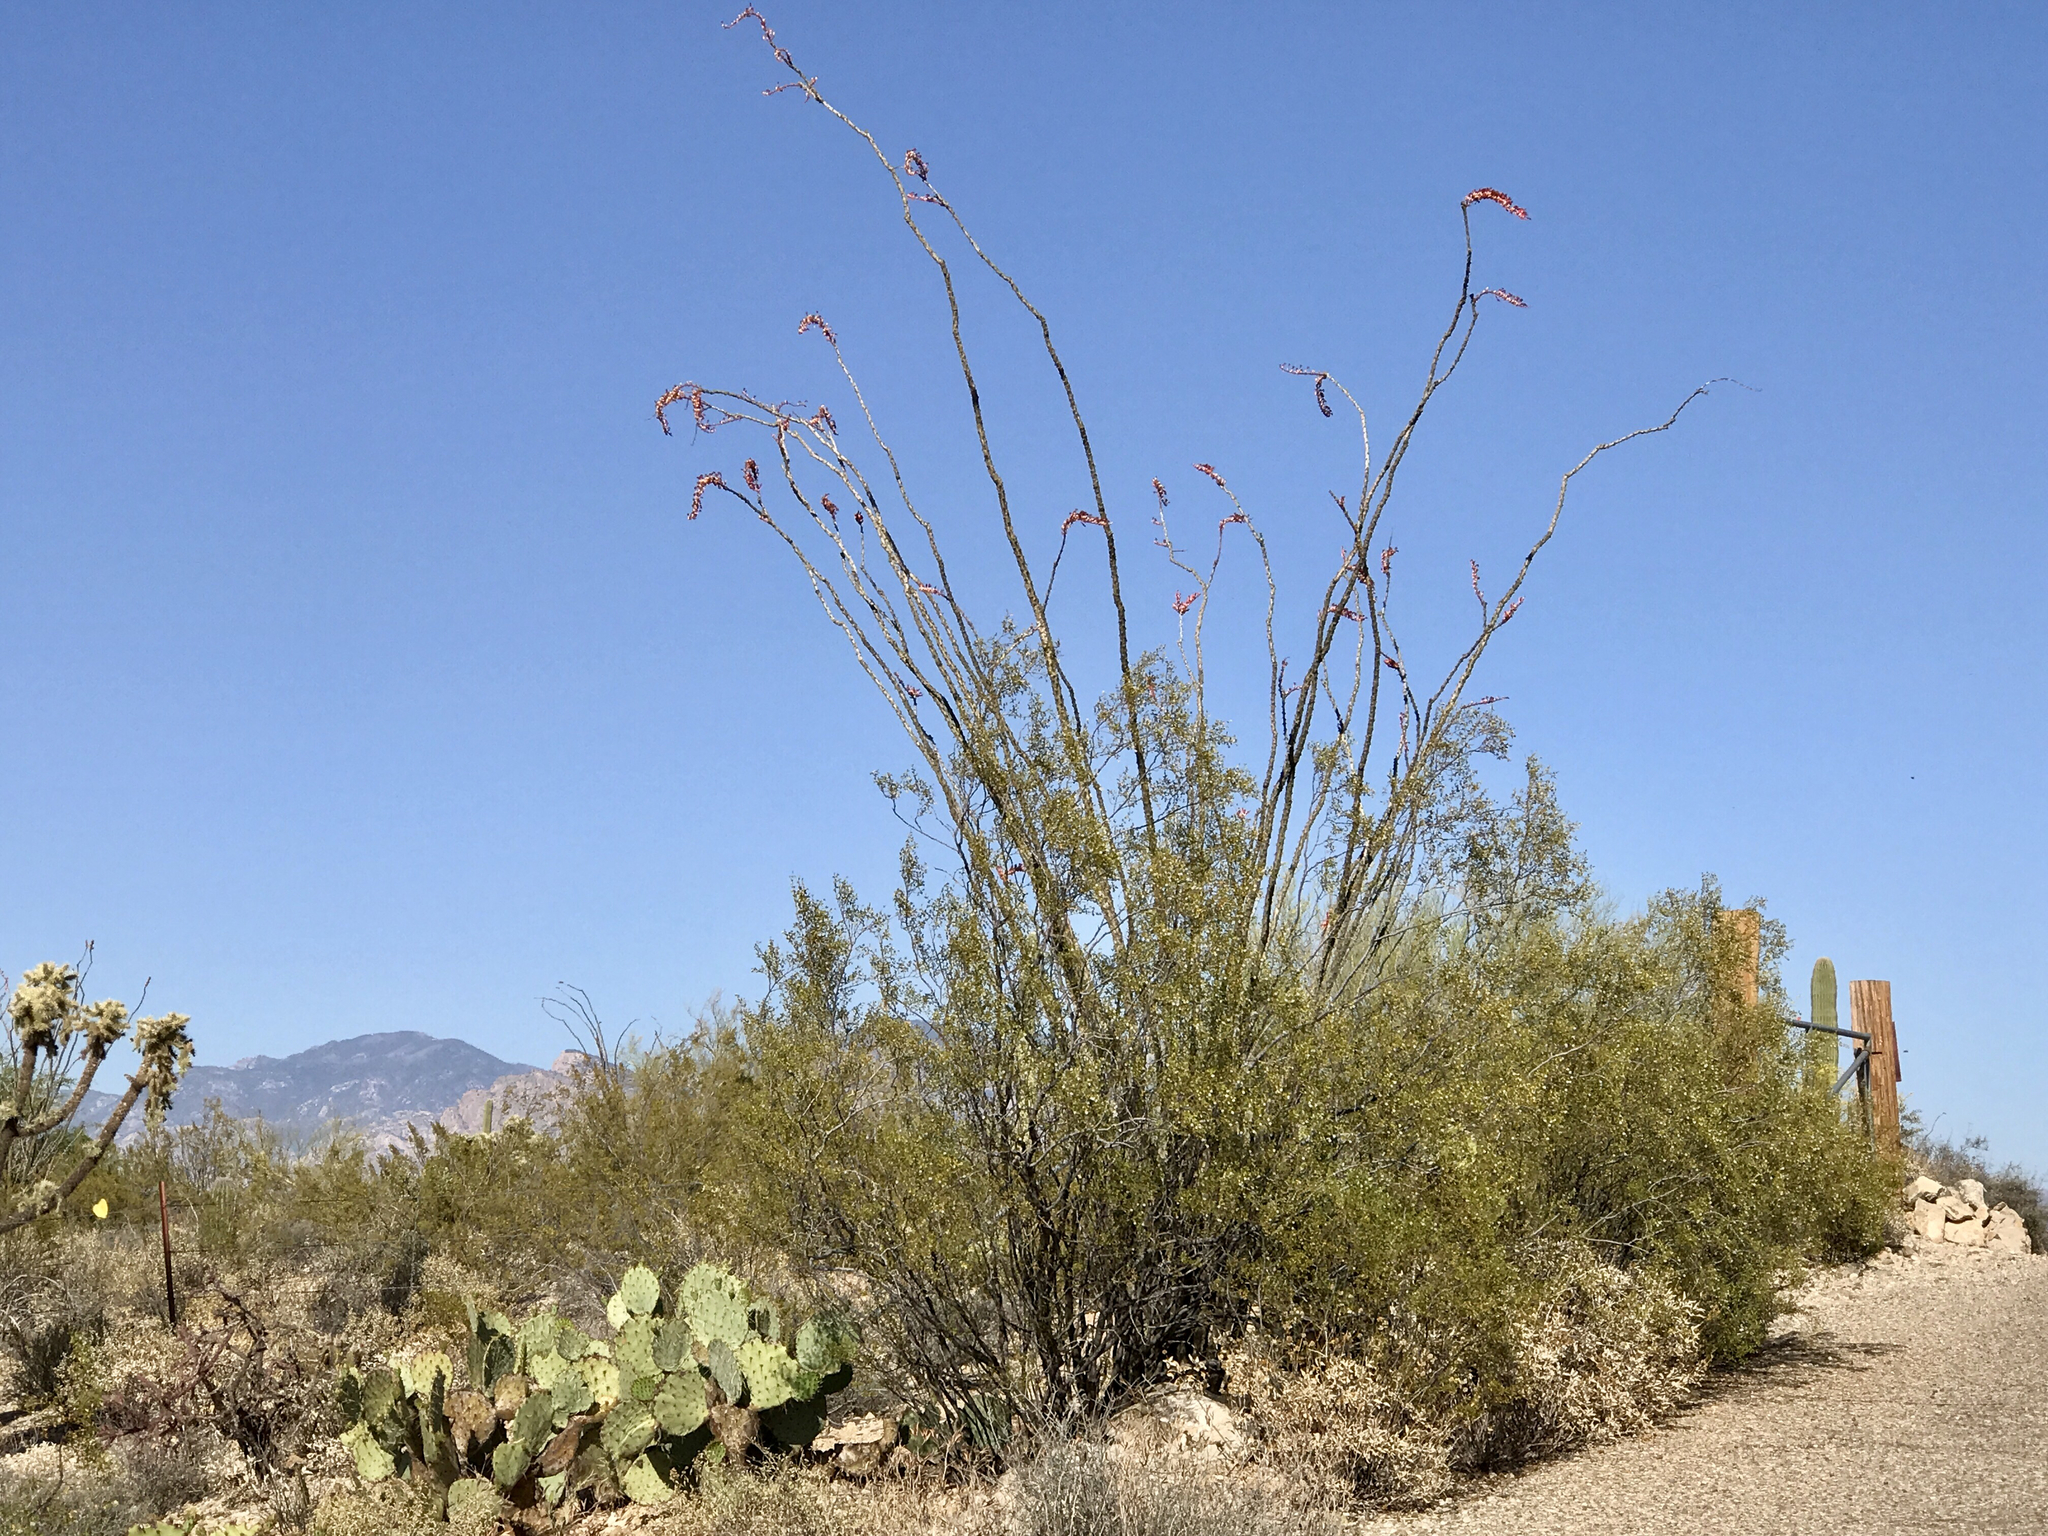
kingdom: Plantae
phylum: Tracheophyta
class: Magnoliopsida
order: Ericales
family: Fouquieriaceae
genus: Fouquieria
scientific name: Fouquieria splendens
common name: Vine-cactus
